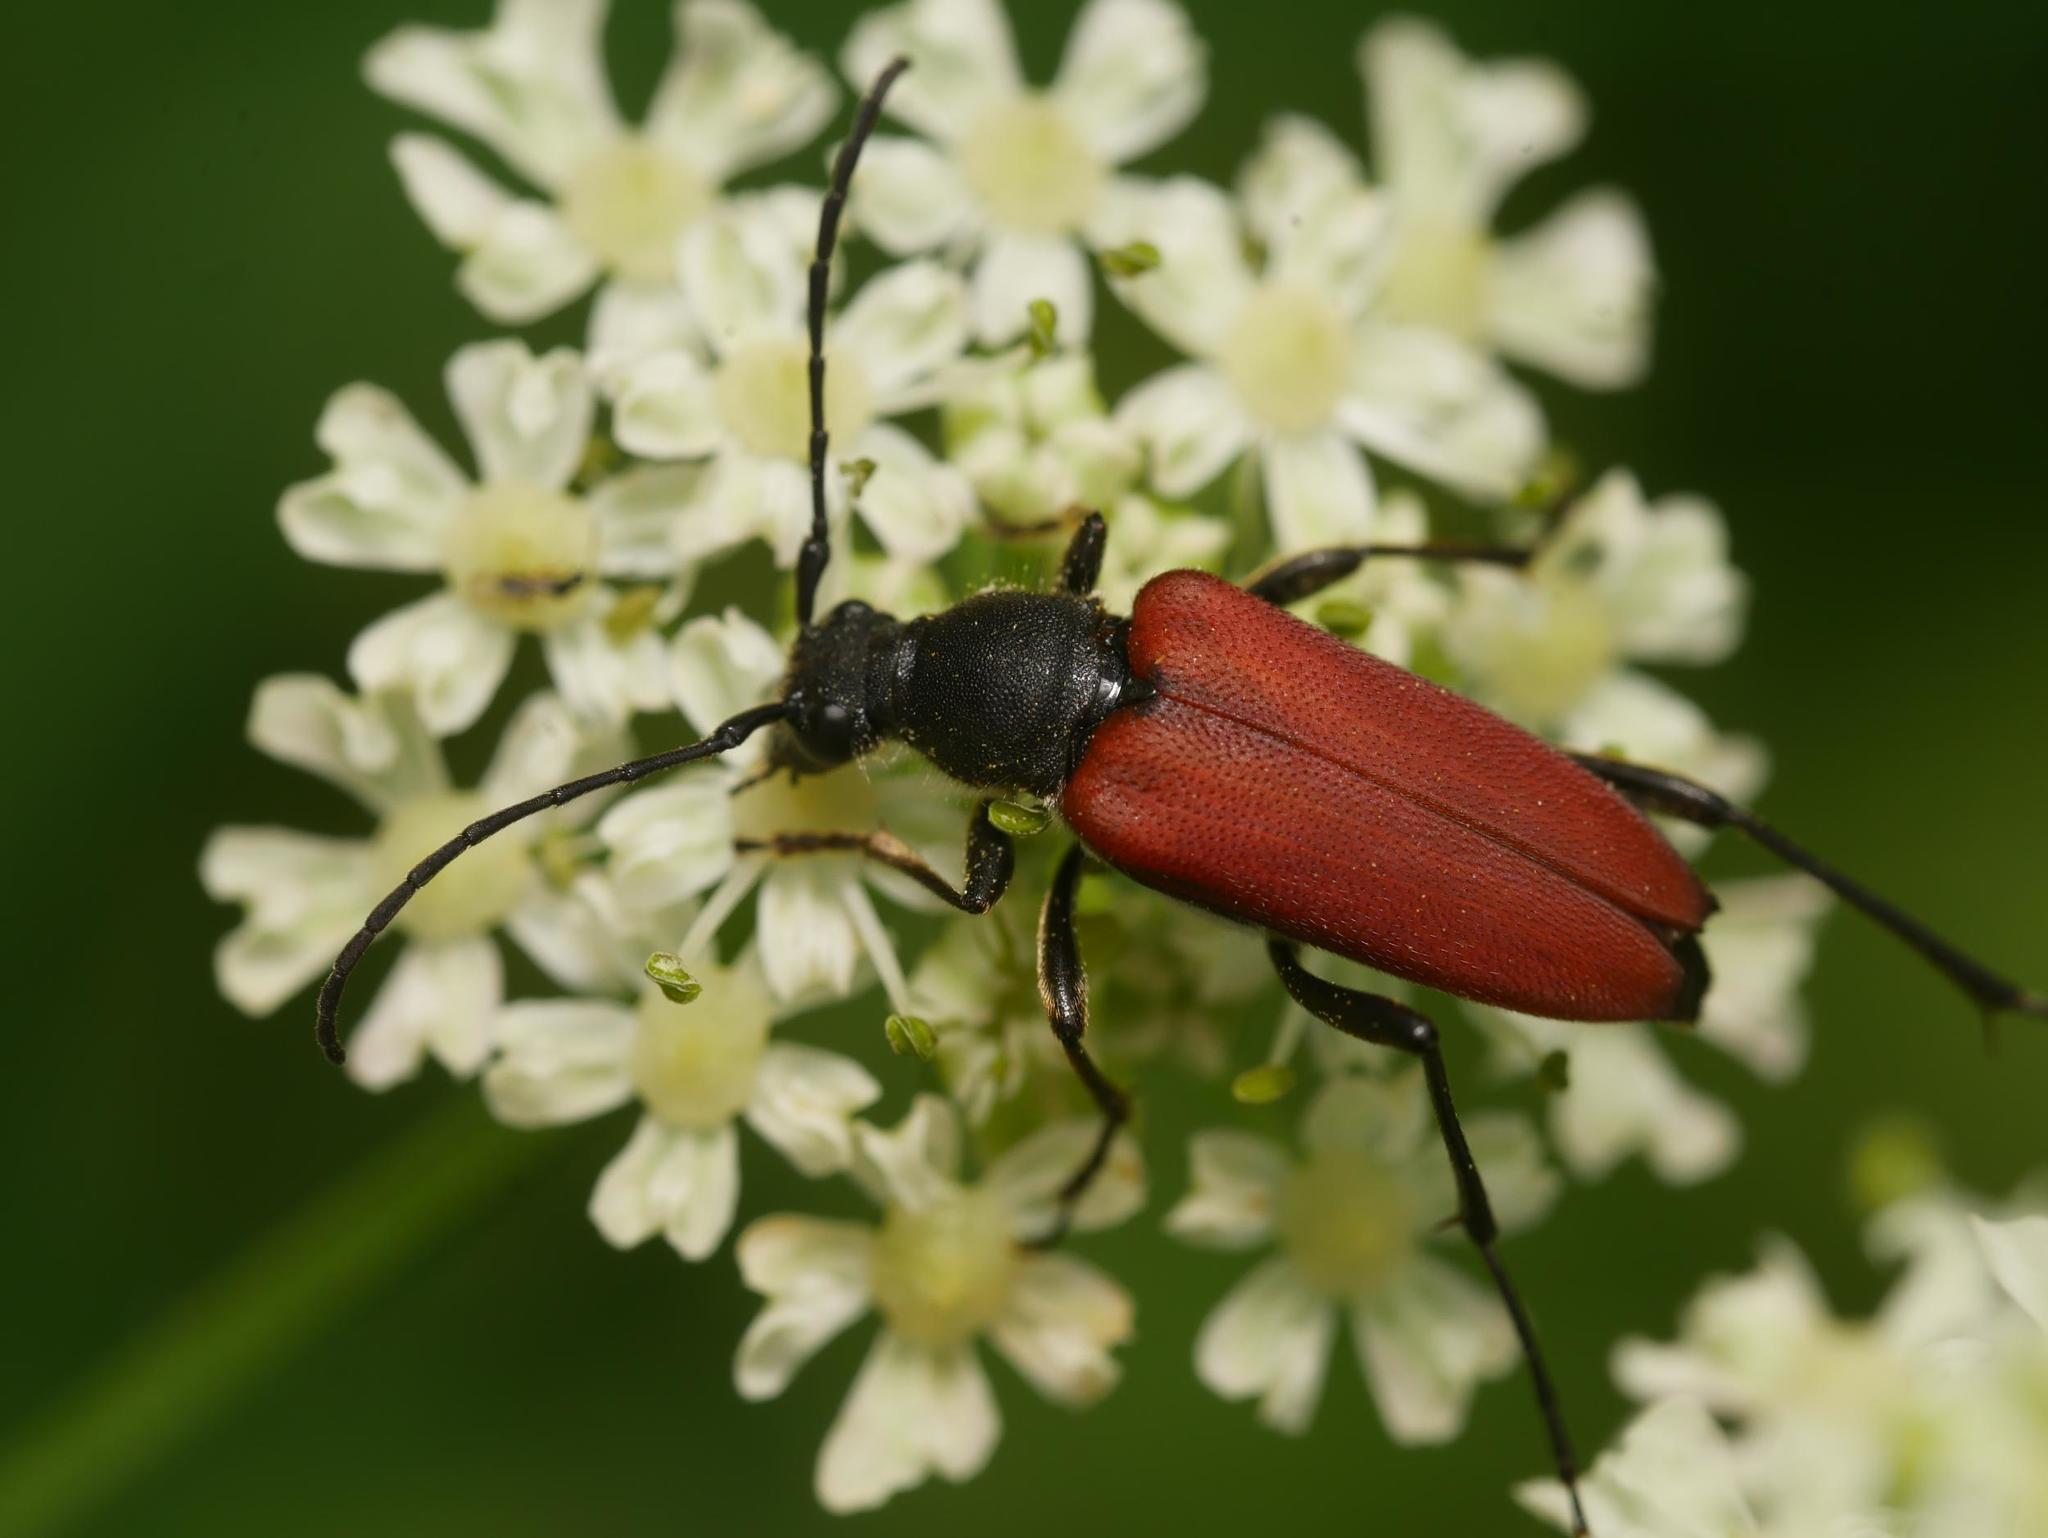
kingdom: Animalia
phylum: Arthropoda
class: Insecta
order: Coleoptera
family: Cerambycidae
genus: Anastrangalia
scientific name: Anastrangalia sanguinolenta
